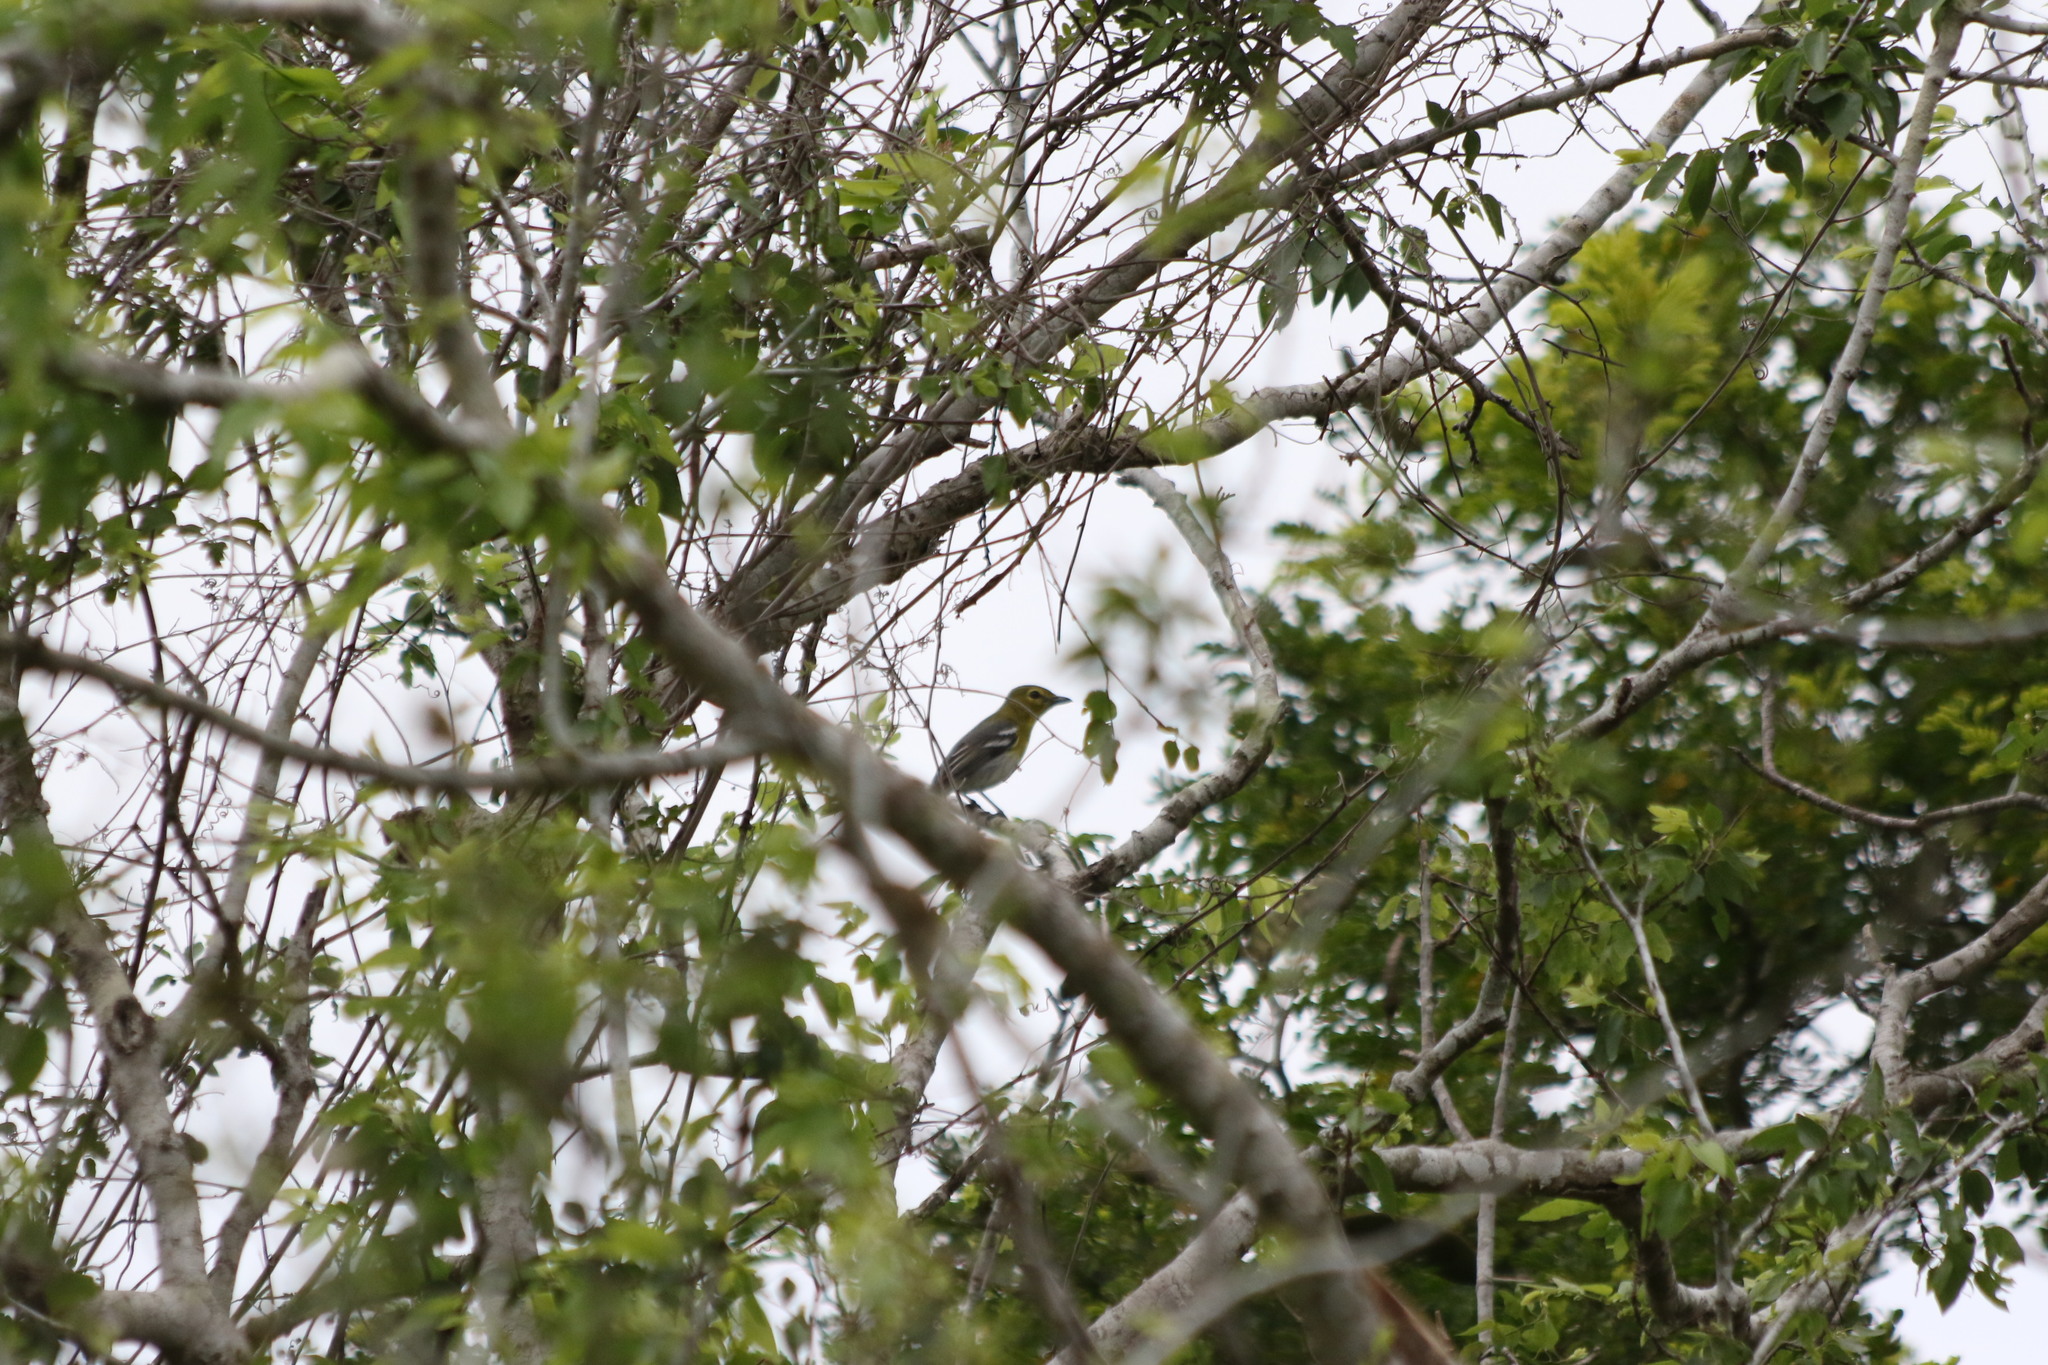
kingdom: Animalia
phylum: Chordata
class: Aves
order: Passeriformes
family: Vireonidae
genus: Vireo
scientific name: Vireo flavifrons
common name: Yellow-throated vireo
